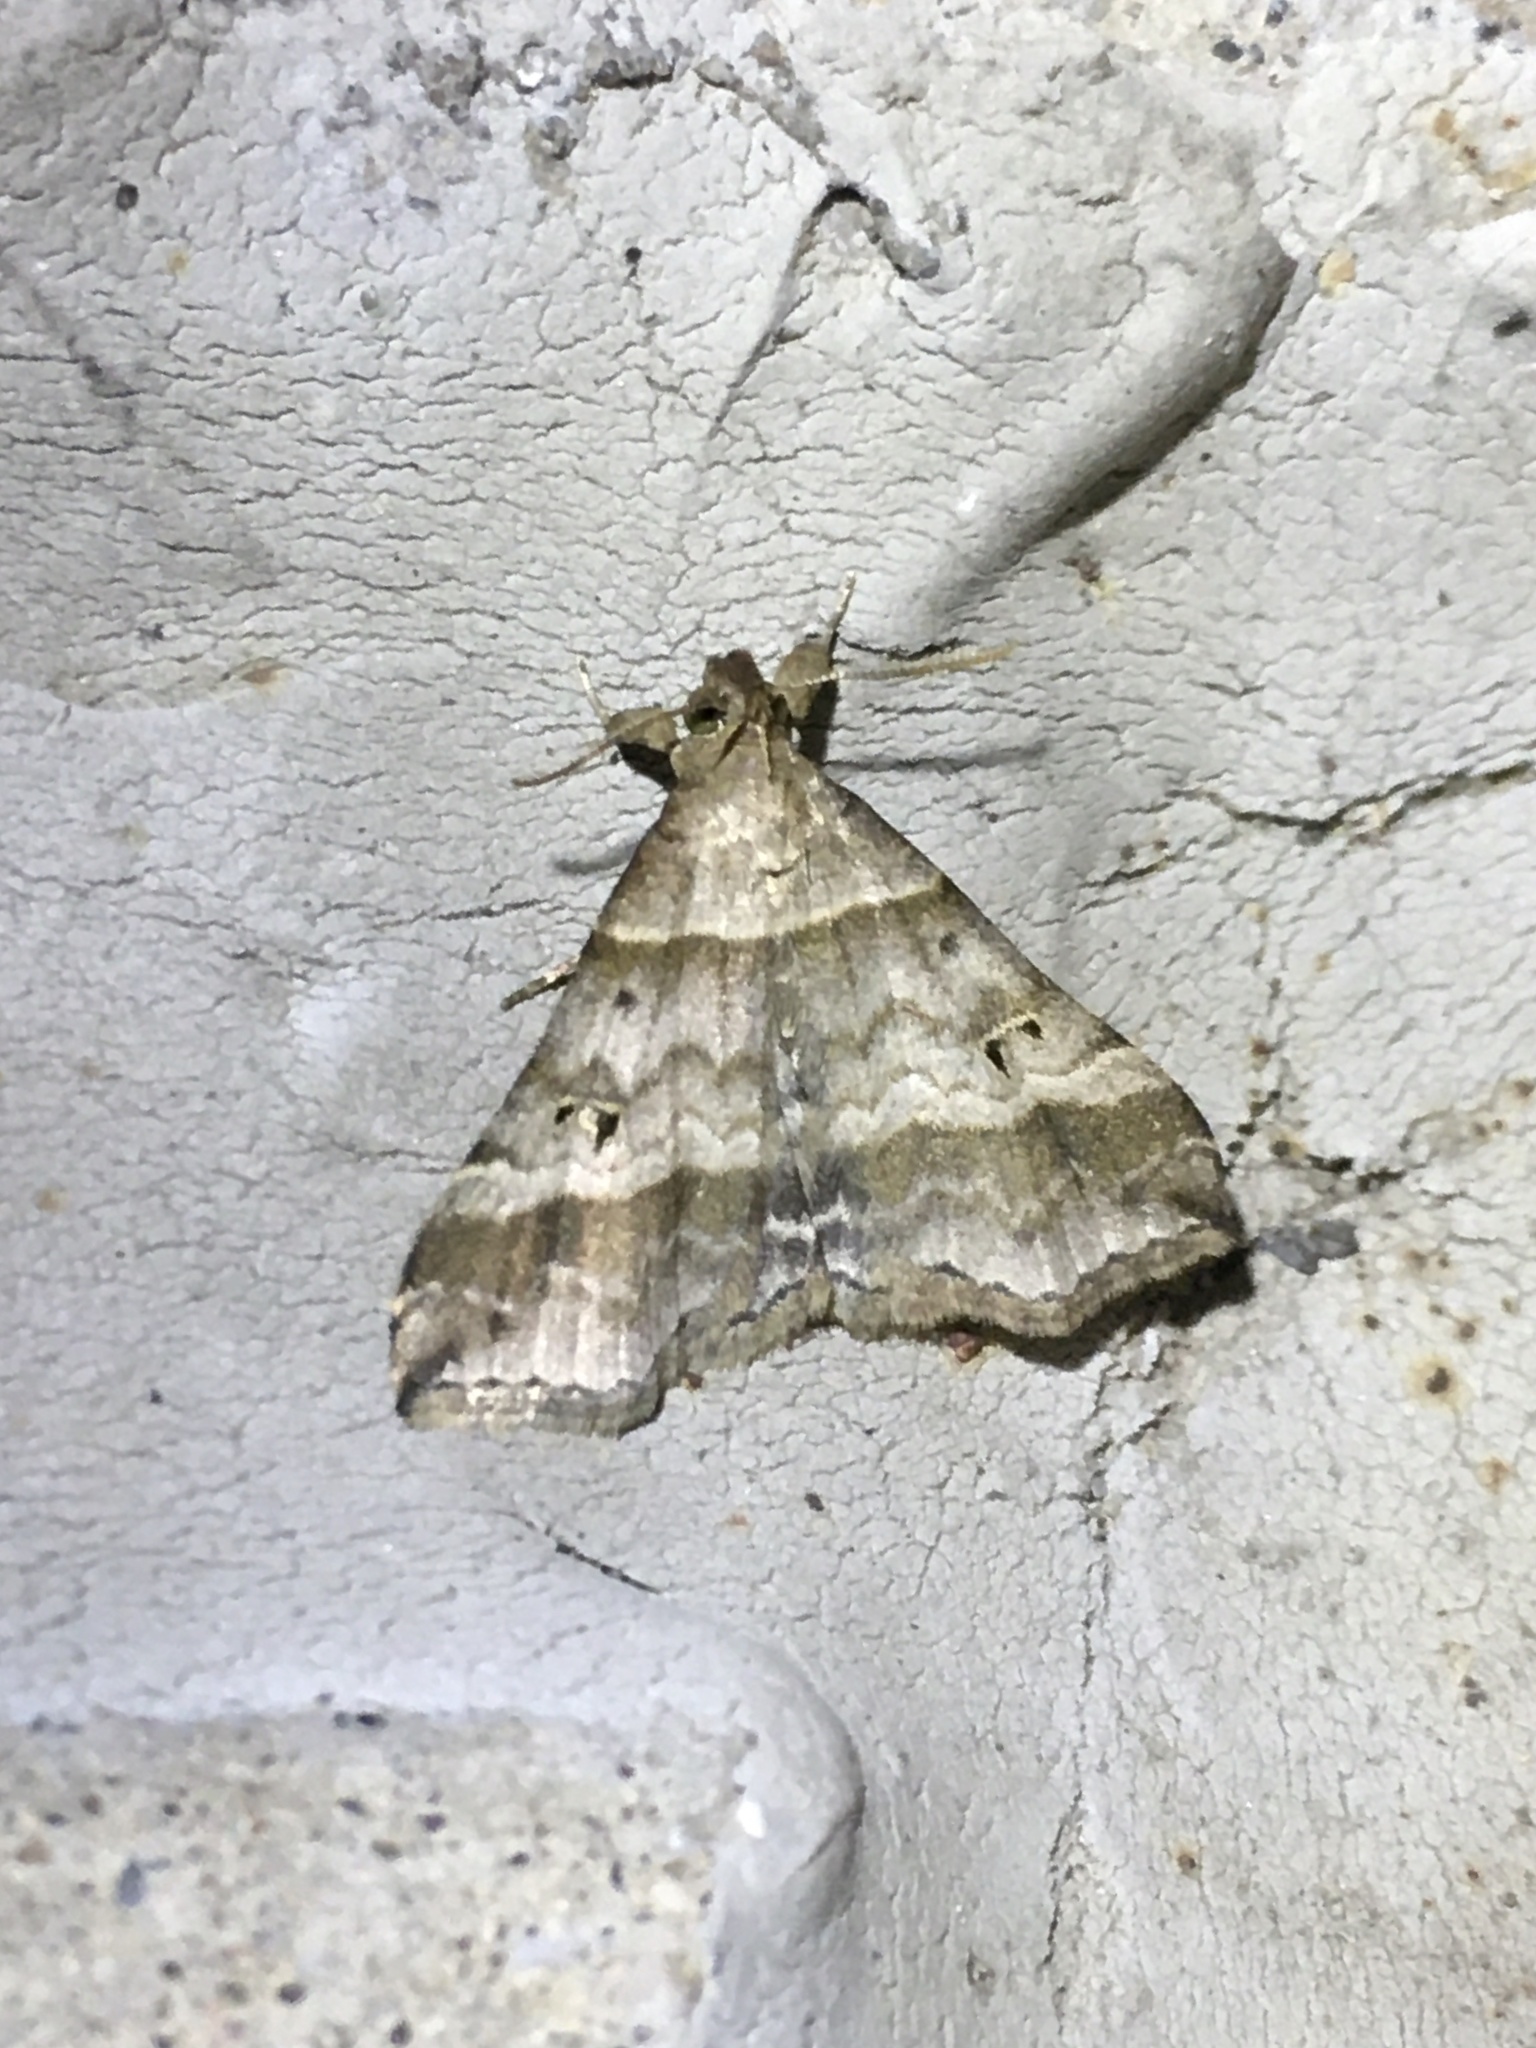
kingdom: Animalia
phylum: Arthropoda
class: Insecta
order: Lepidoptera
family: Erebidae
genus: Phaeolita
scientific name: Phaeolita pyramusalis
